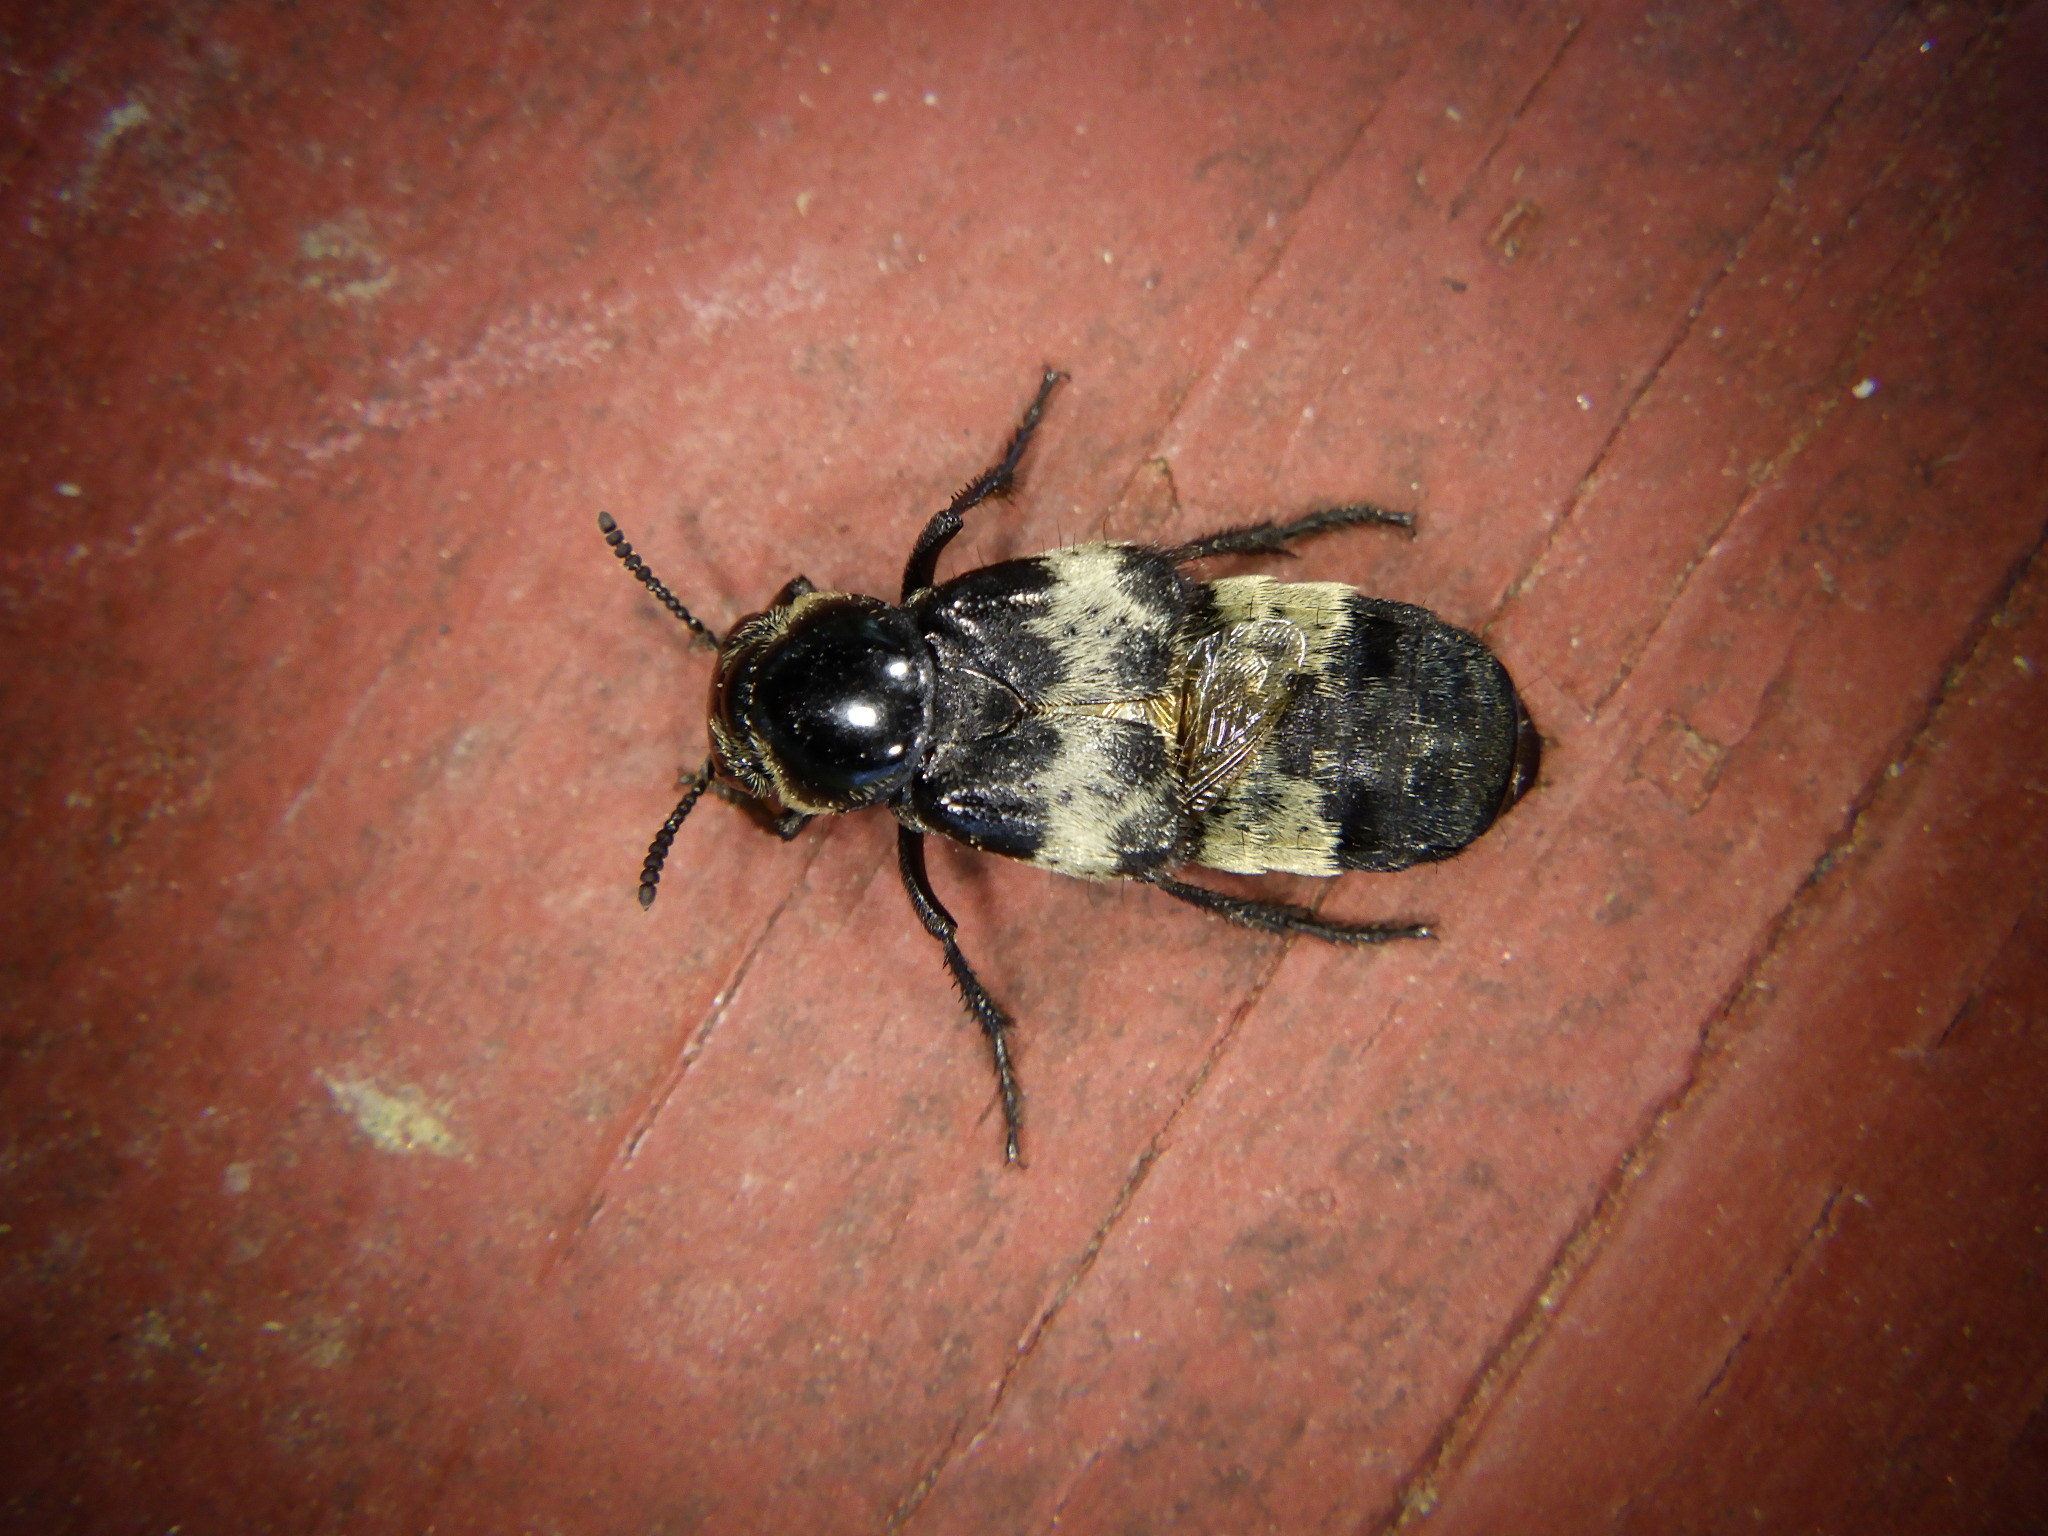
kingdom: Animalia
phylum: Arthropoda
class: Insecta
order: Coleoptera
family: Staphylinidae
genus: Creophilus
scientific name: Creophilus maxillosus
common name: Hairy rove beetle
